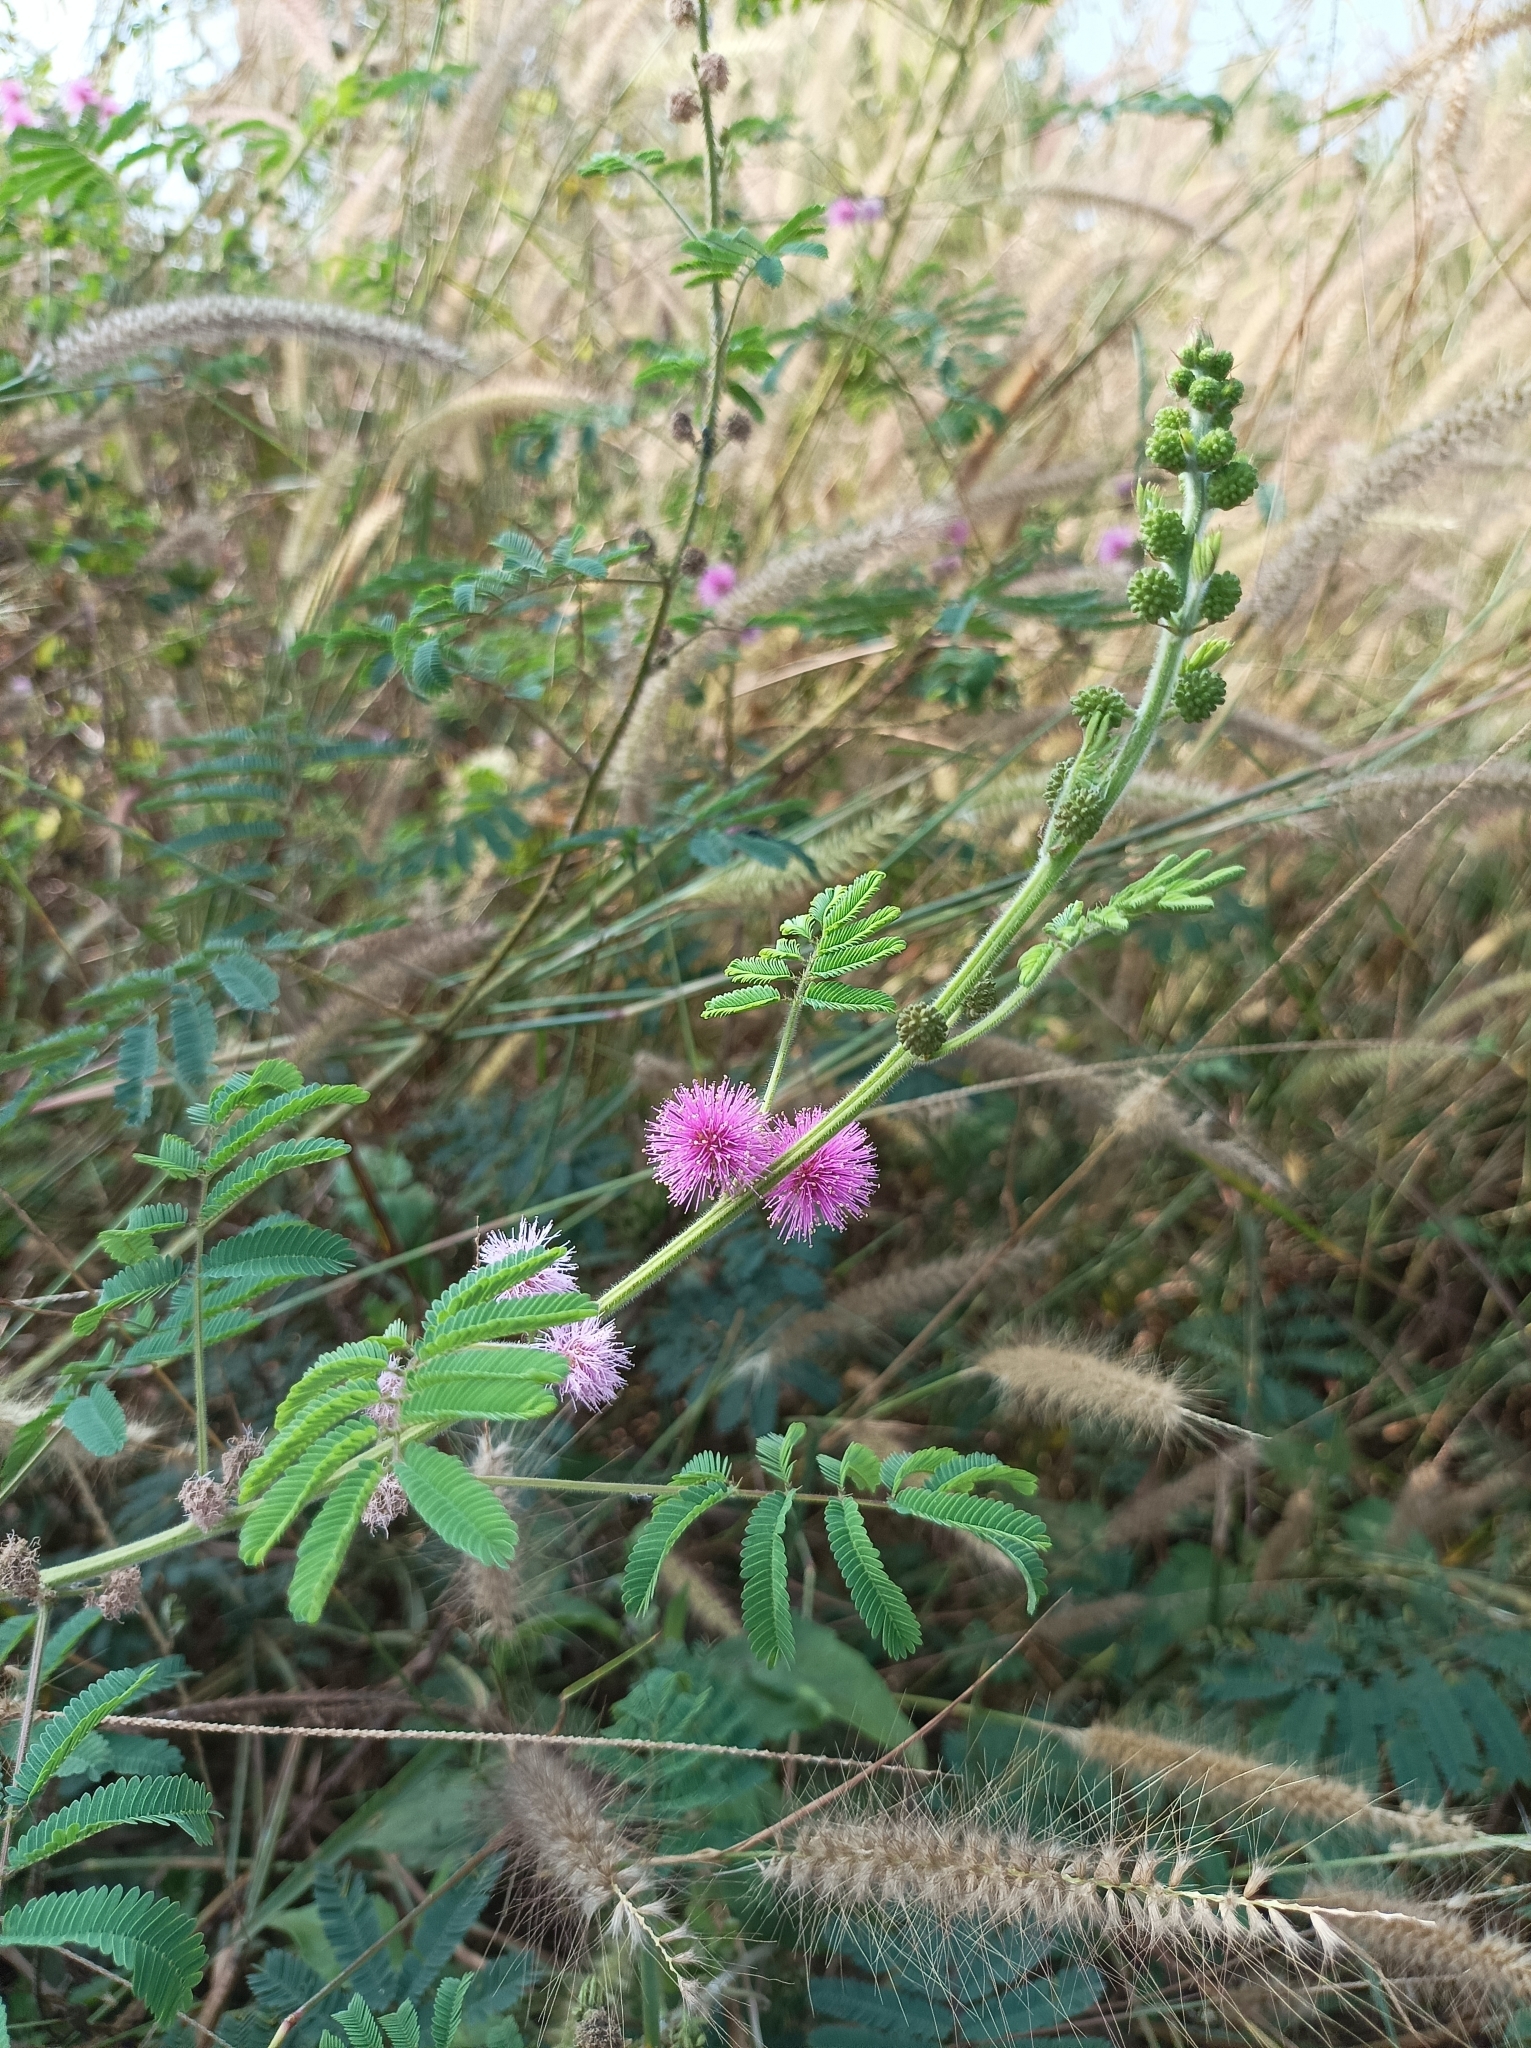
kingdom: Plantae
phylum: Tracheophyta
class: Magnoliopsida
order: Fabales
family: Fabaceae
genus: Mimosa
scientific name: Mimosa diplotricha
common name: Giant sensitive-plant
